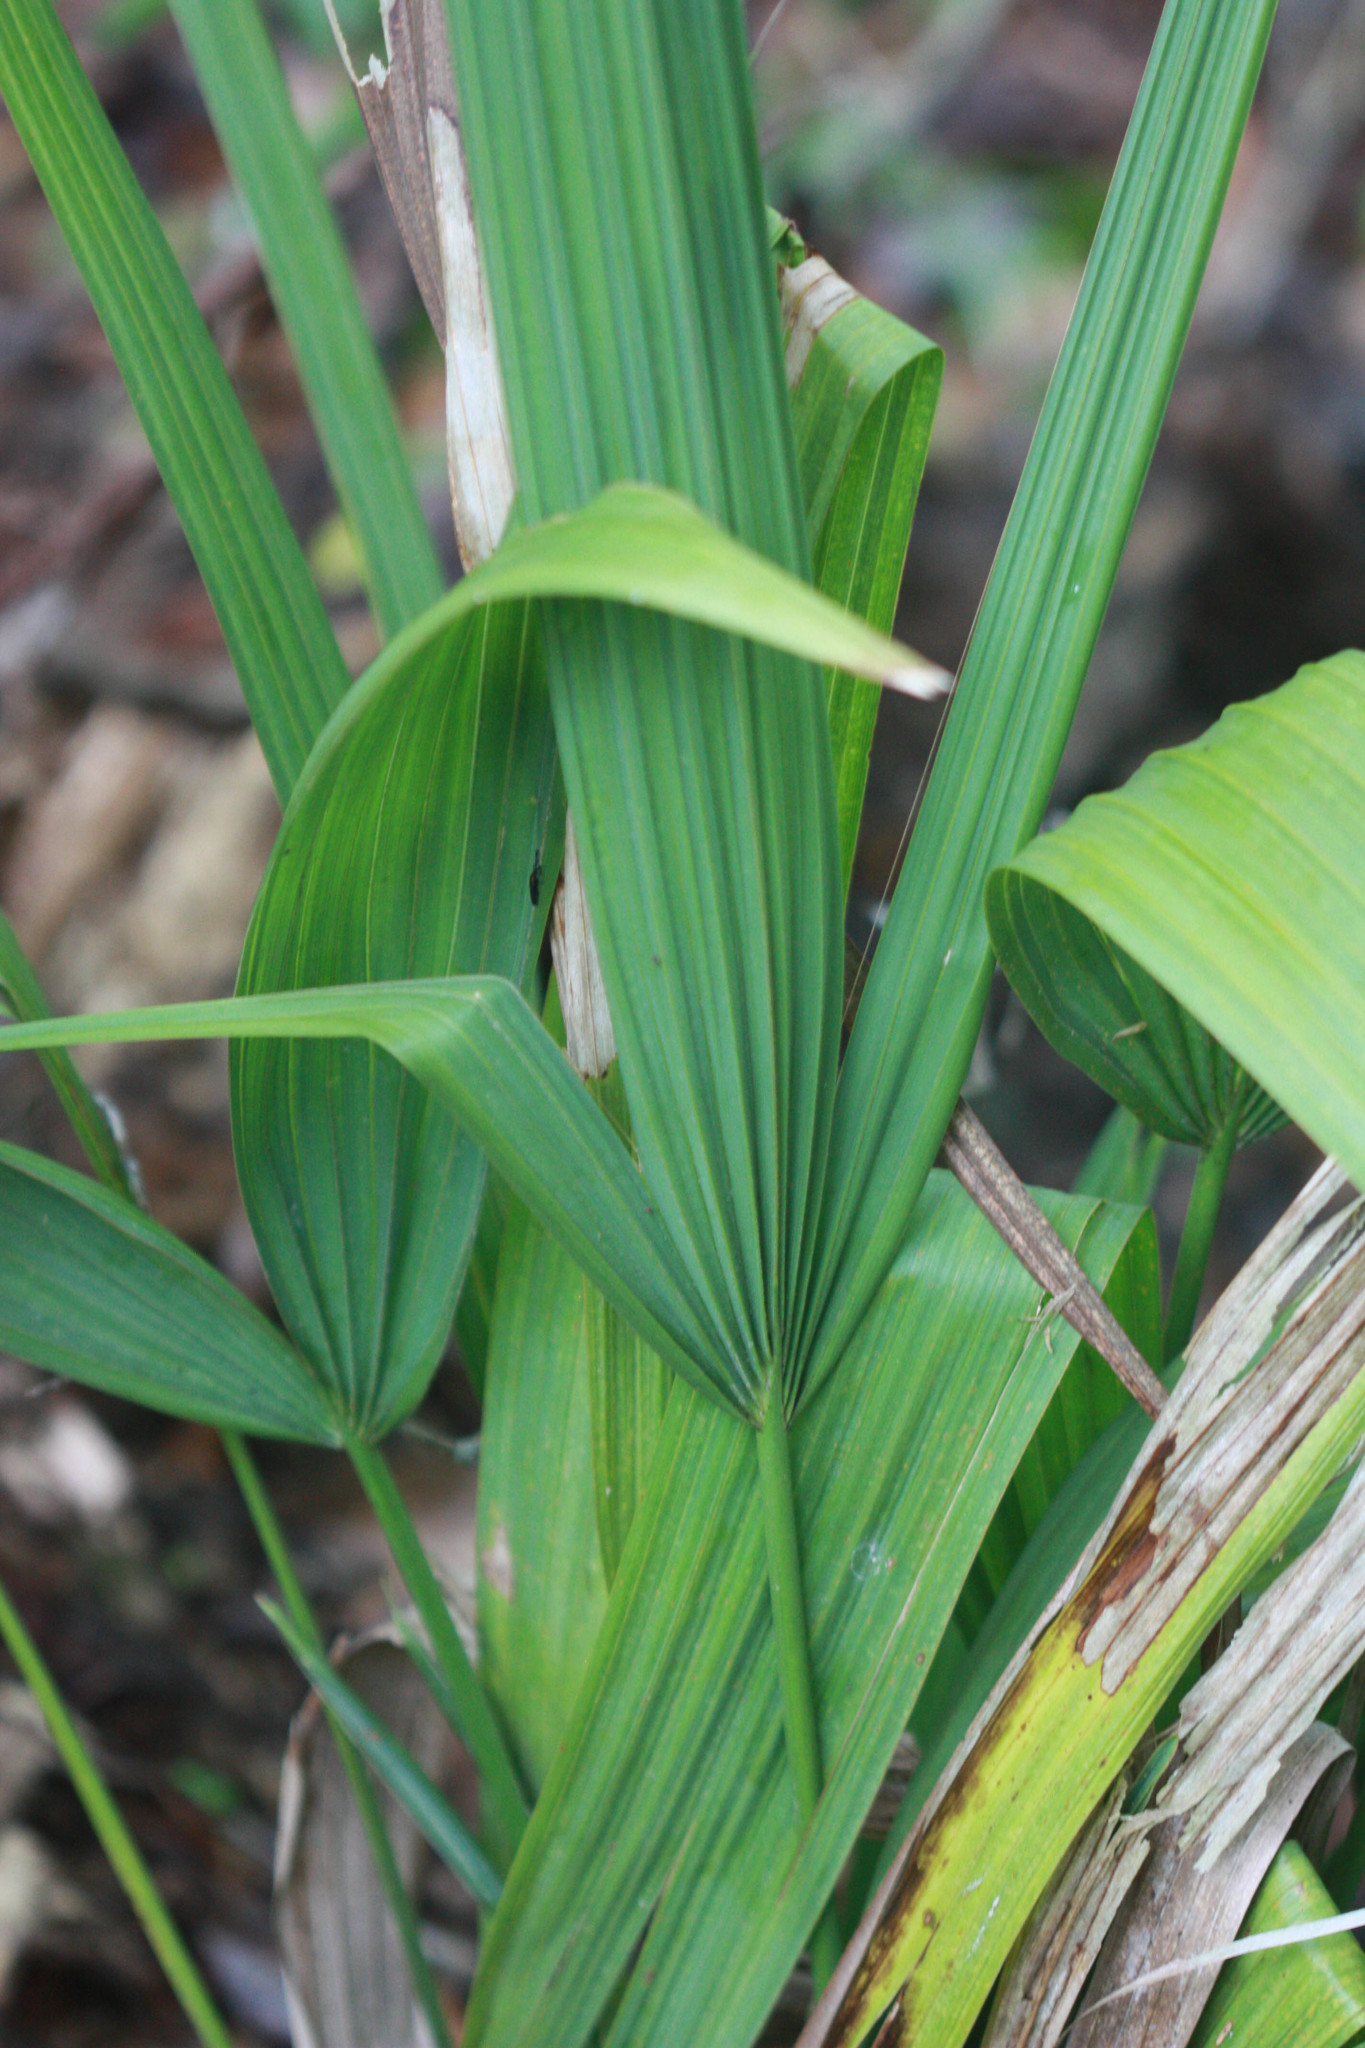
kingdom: Plantae
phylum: Tracheophyta
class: Liliopsida
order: Arecales
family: Arecaceae
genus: Sabal
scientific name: Sabal minor
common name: Dwarf palmetto
